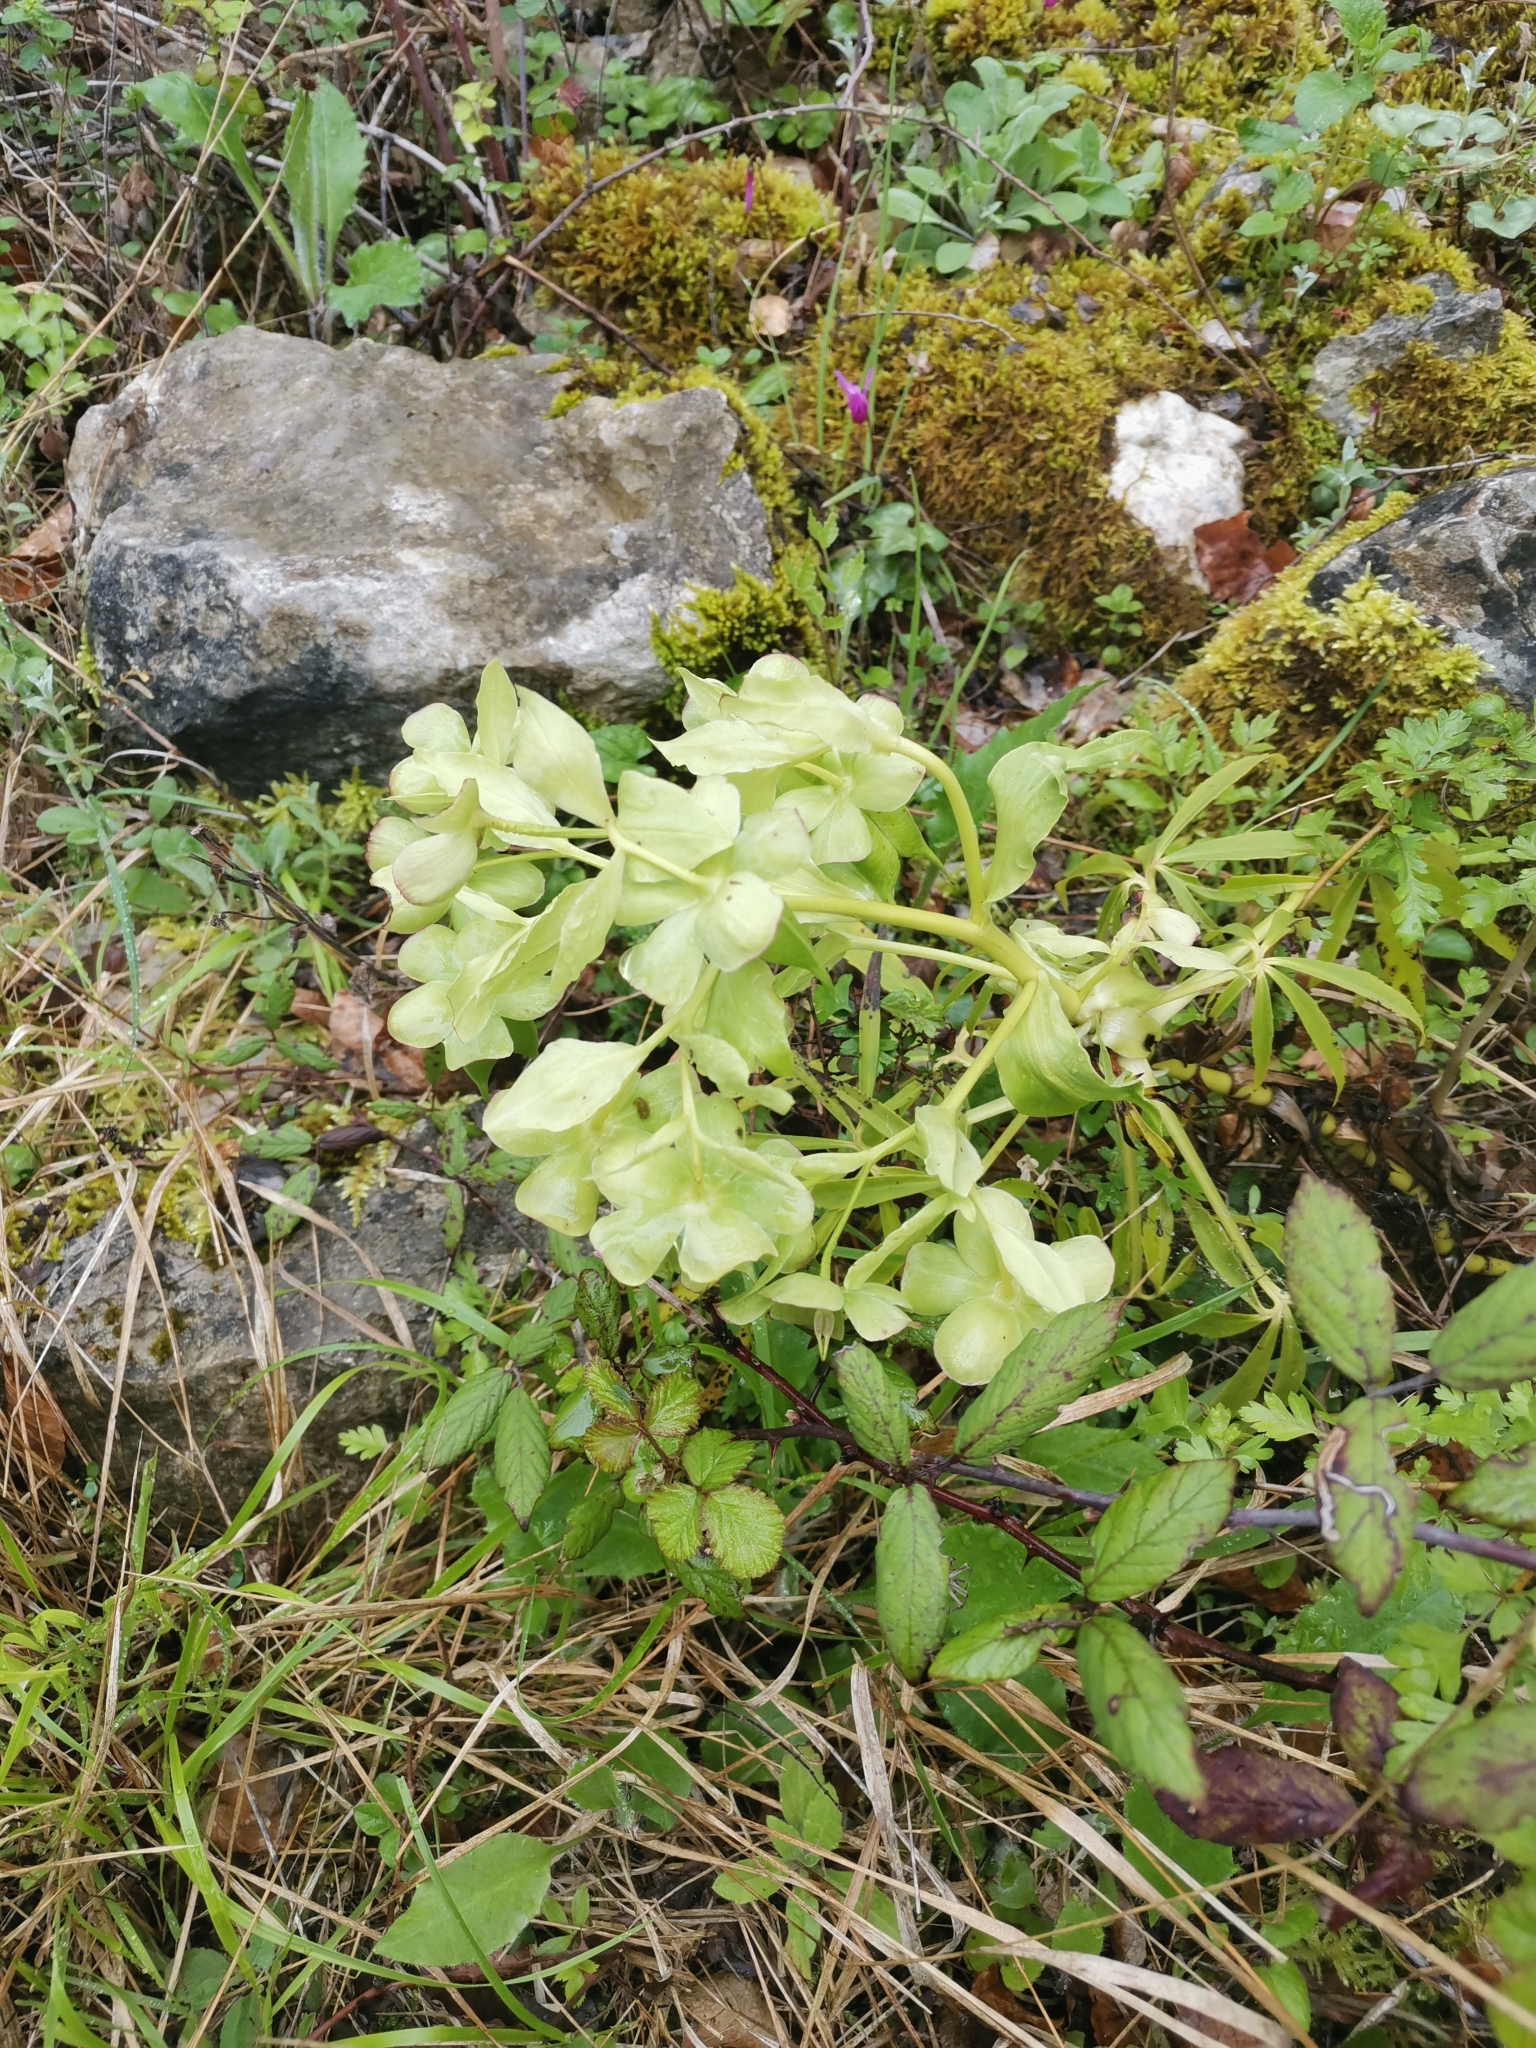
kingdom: Plantae
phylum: Tracheophyta
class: Magnoliopsida
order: Ranunculales
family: Ranunculaceae
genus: Helleborus
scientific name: Helleborus foetidus
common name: Stinking hellebore
